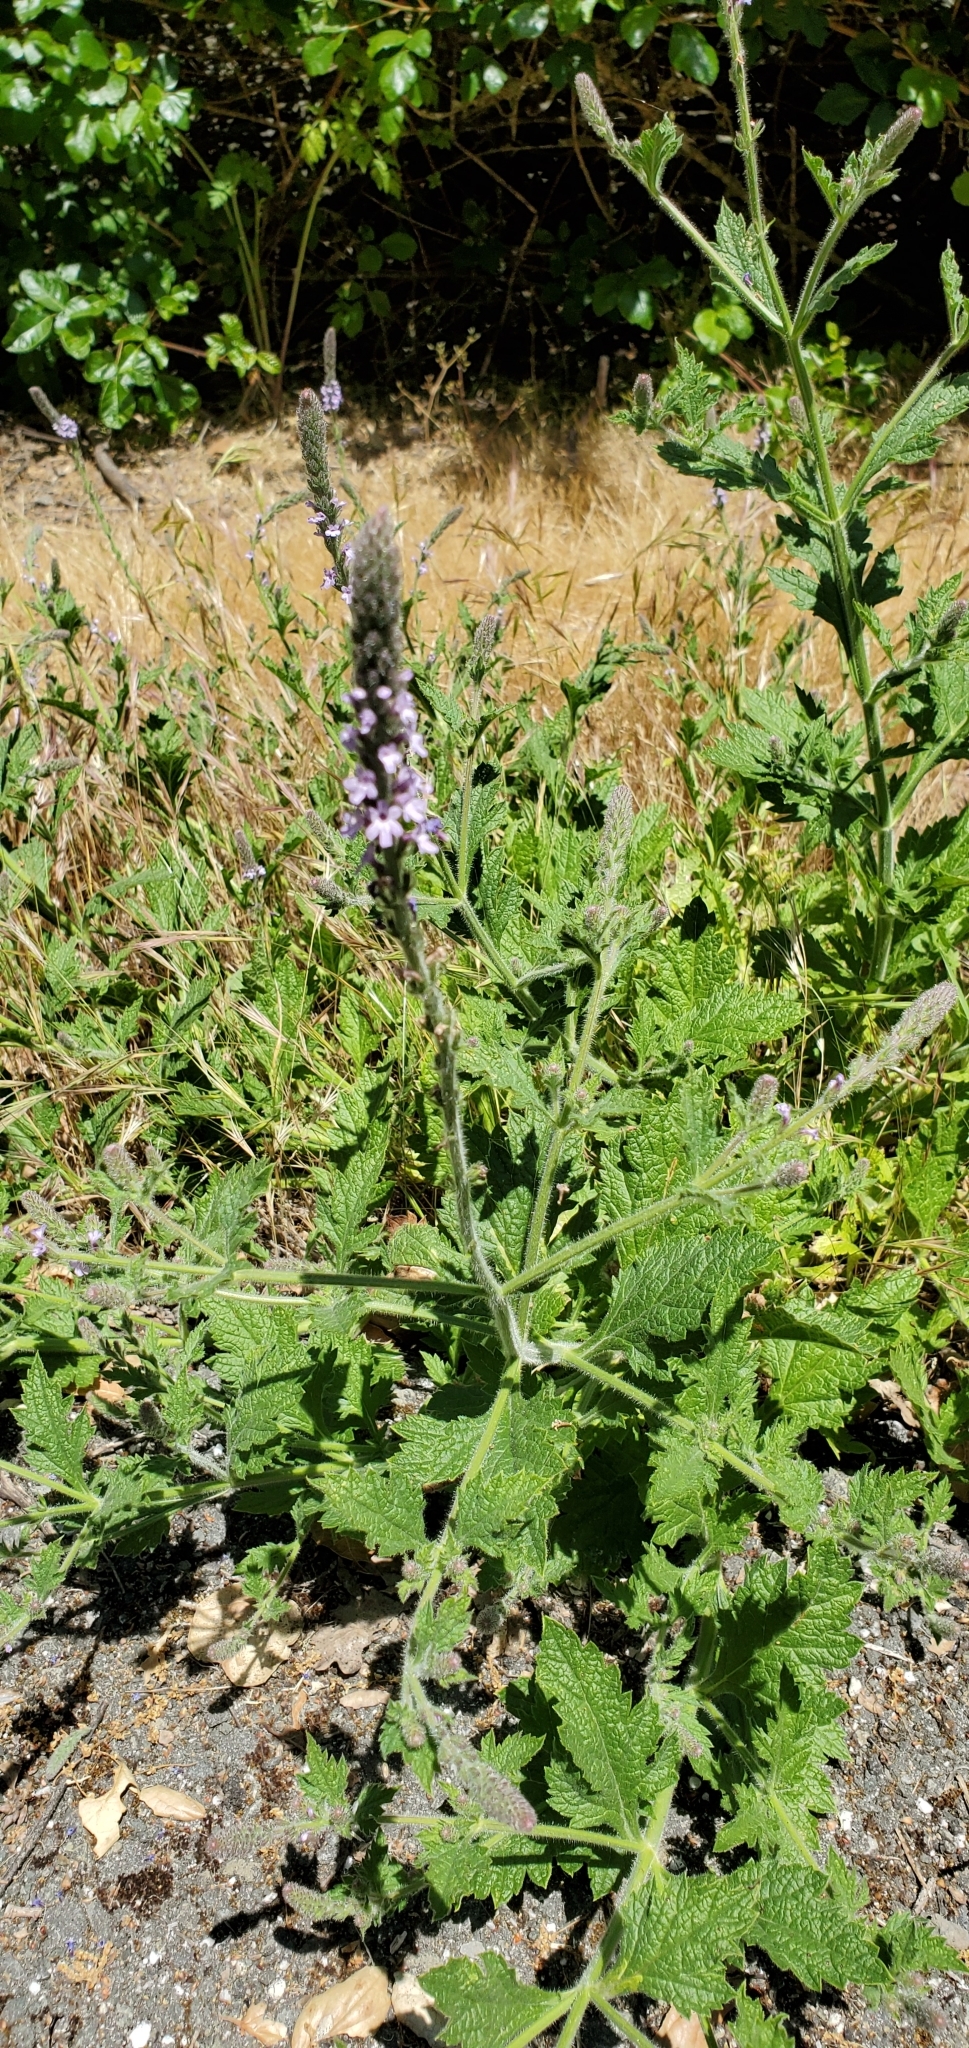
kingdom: Plantae
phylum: Tracheophyta
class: Magnoliopsida
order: Lamiales
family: Verbenaceae
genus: Verbena
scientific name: Verbena lasiostachys
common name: Vervain
